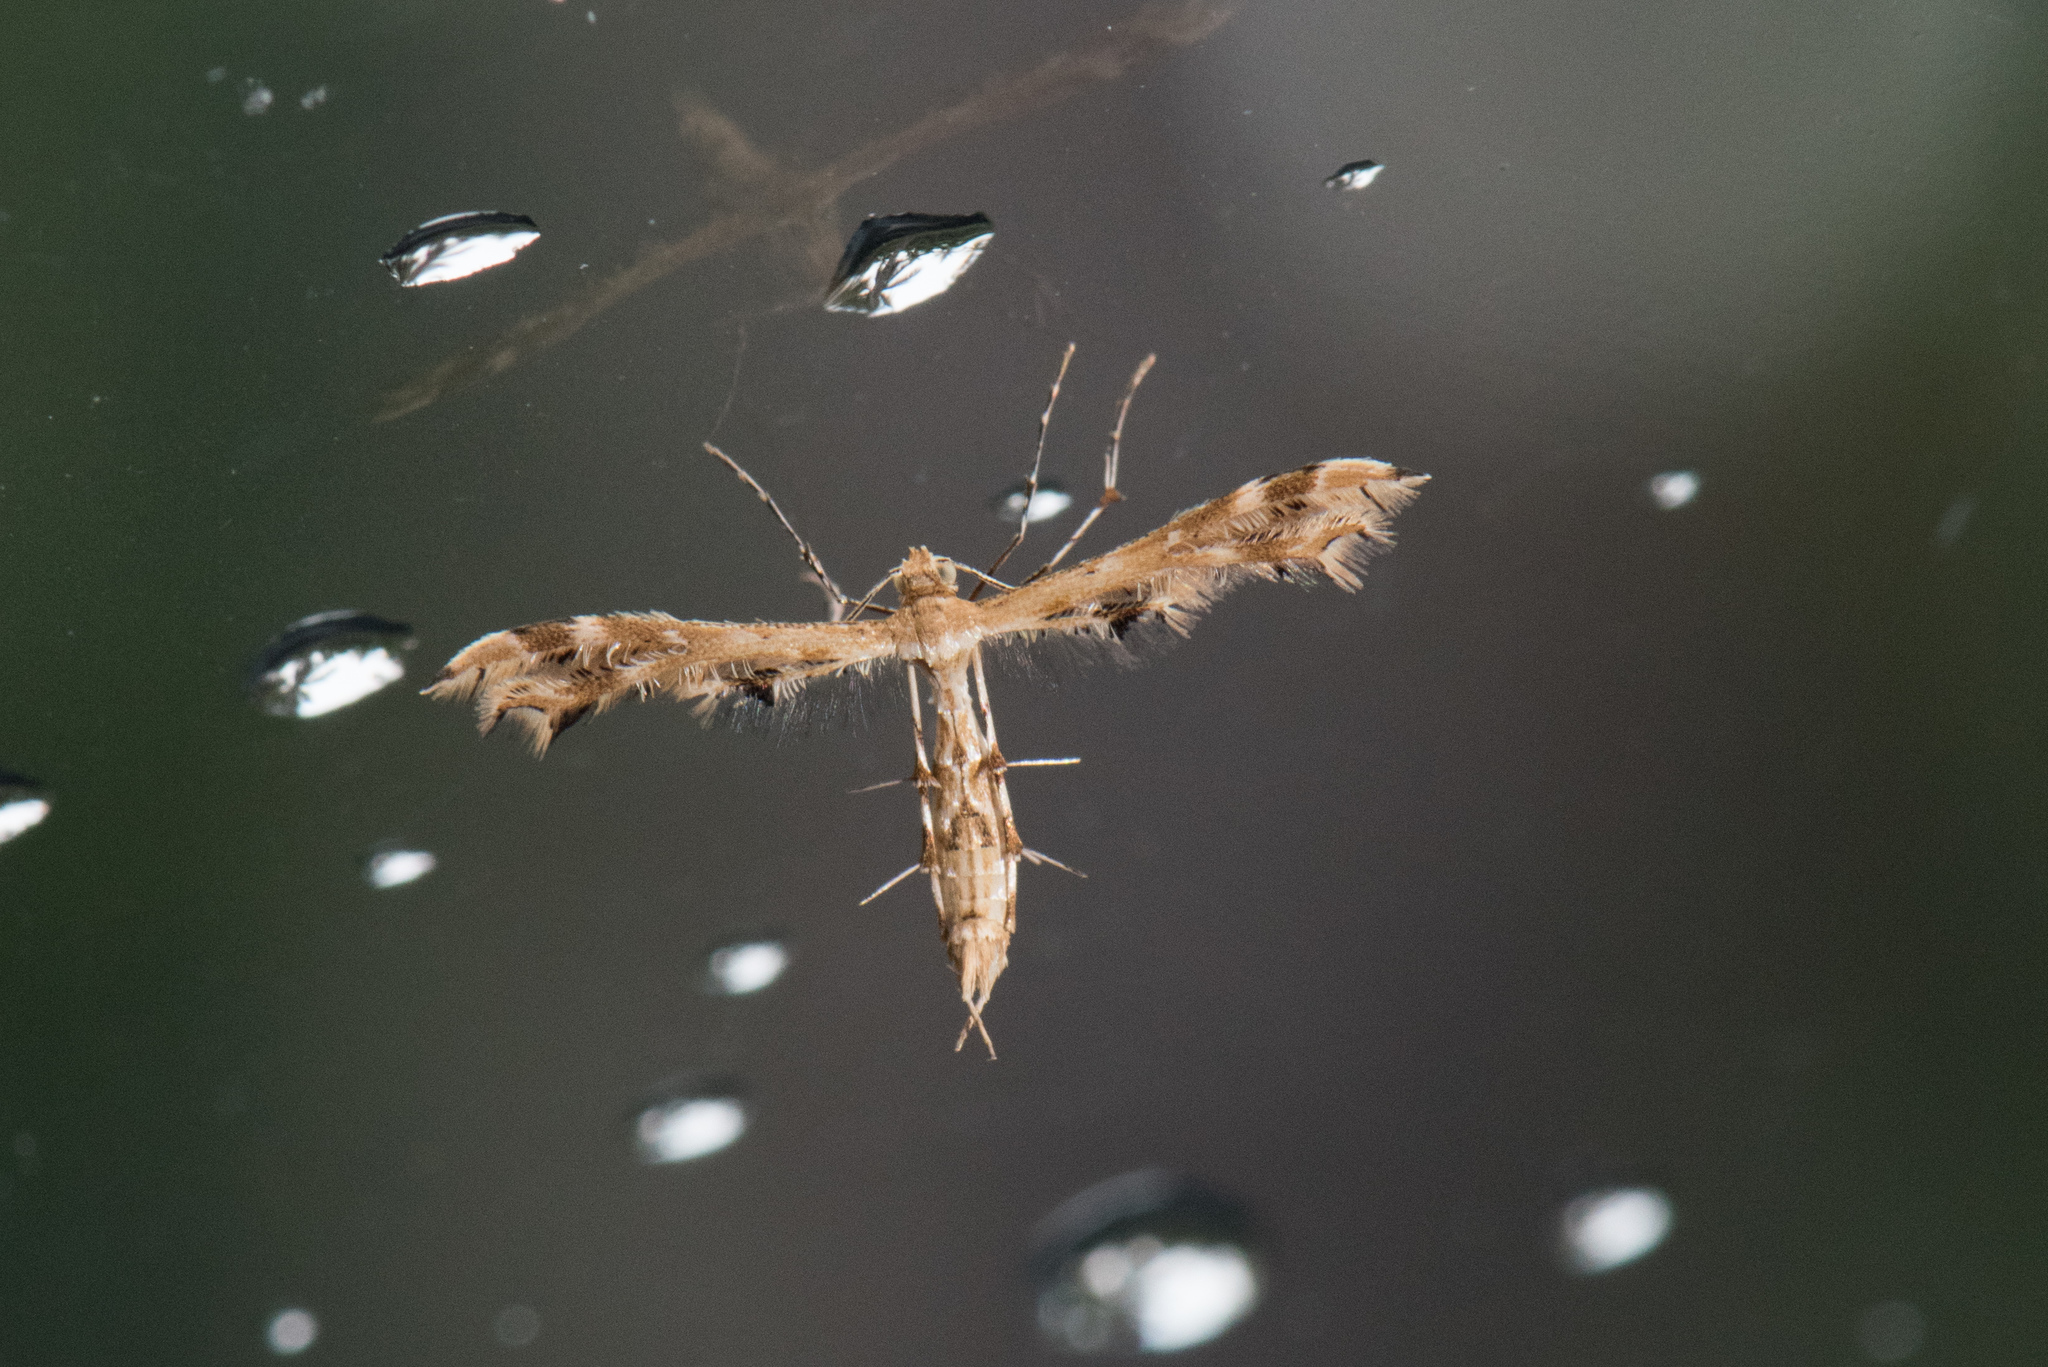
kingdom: Animalia
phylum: Arthropoda
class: Insecta
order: Lepidoptera
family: Pterophoridae
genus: Sphenarches
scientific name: Sphenarches anisodactylus
